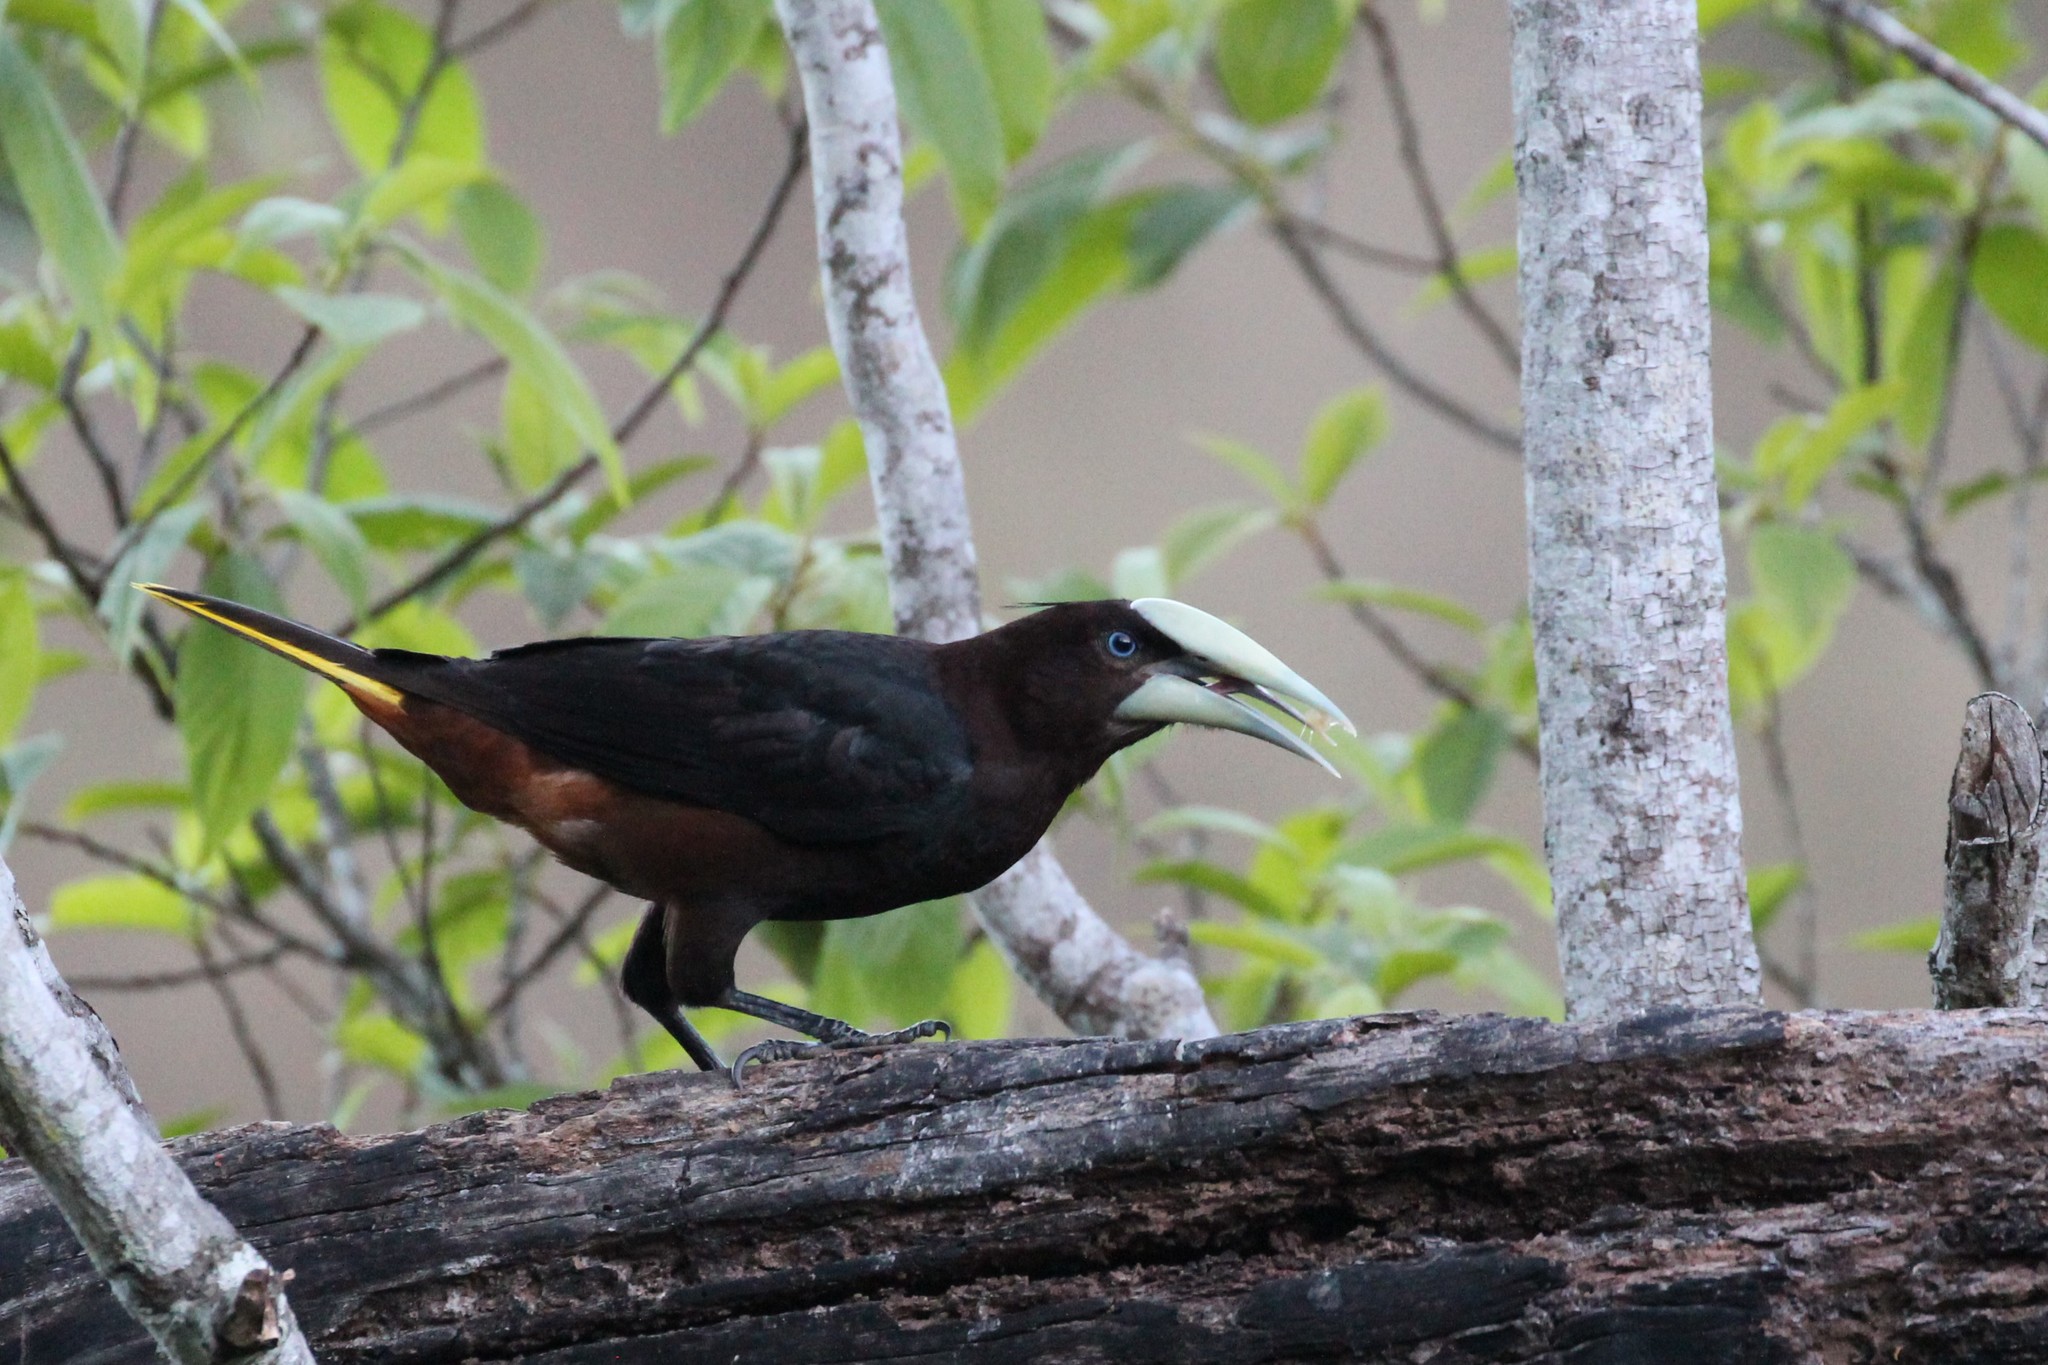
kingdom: Animalia
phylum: Chordata
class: Aves
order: Passeriformes
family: Icteridae
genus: Psarocolius
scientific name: Psarocolius wagleri
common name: Chestnut-headed oropendola
